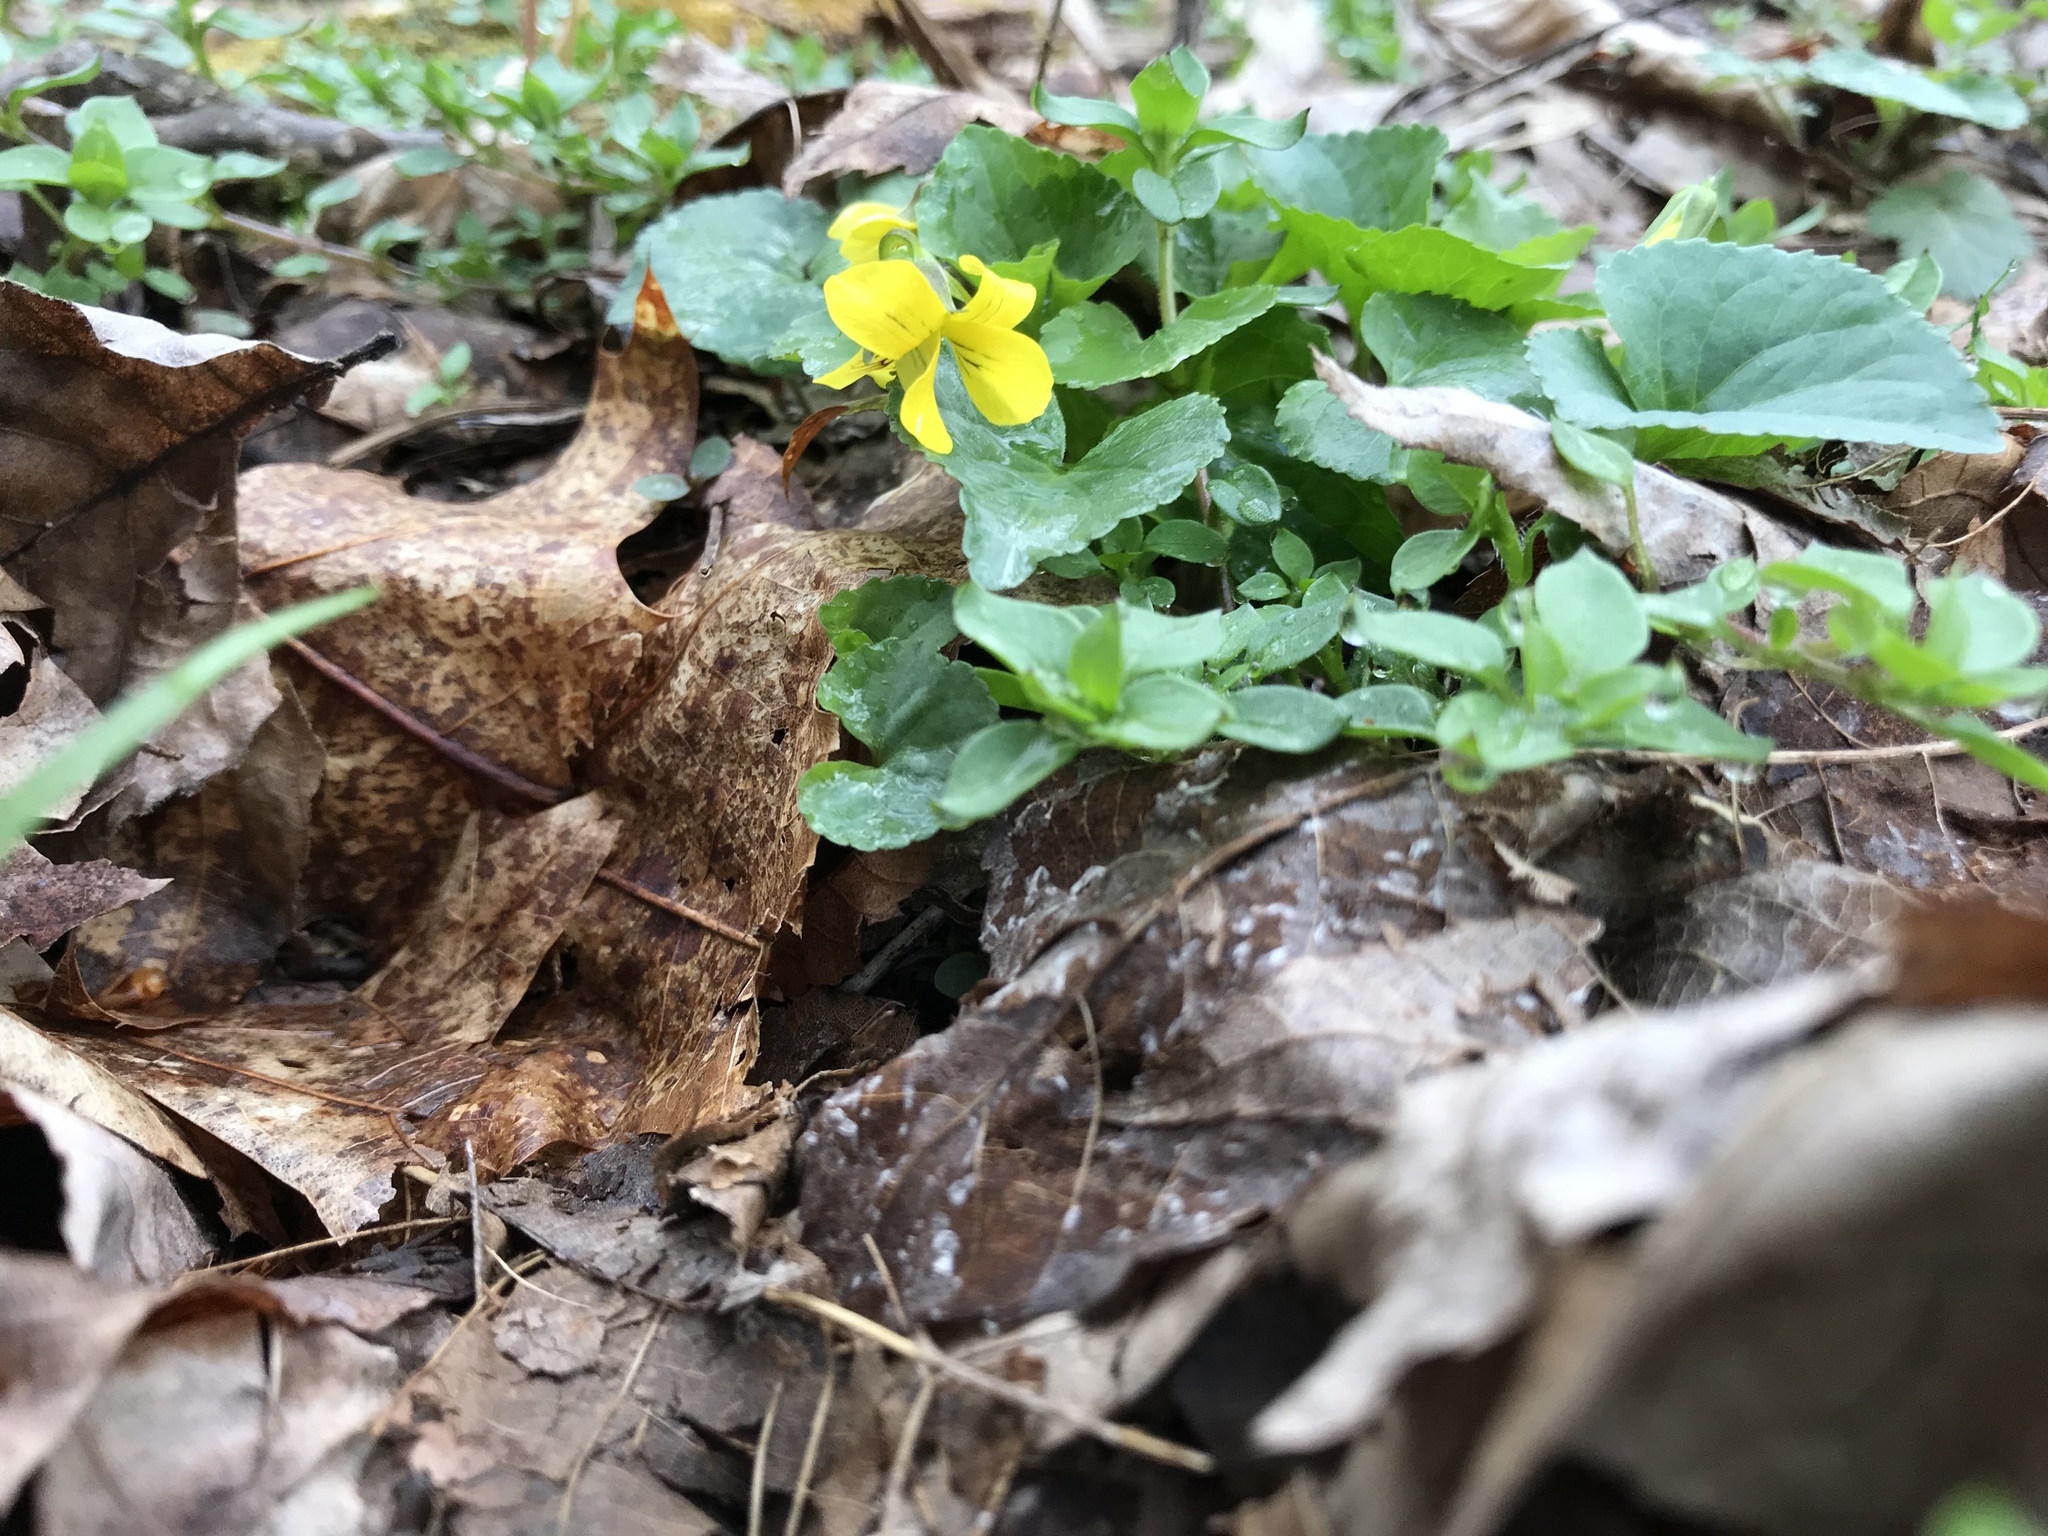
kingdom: Plantae
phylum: Tracheophyta
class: Magnoliopsida
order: Malpighiales
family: Violaceae
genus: Viola
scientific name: Viola eriocarpa
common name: Smooth yellow violet
